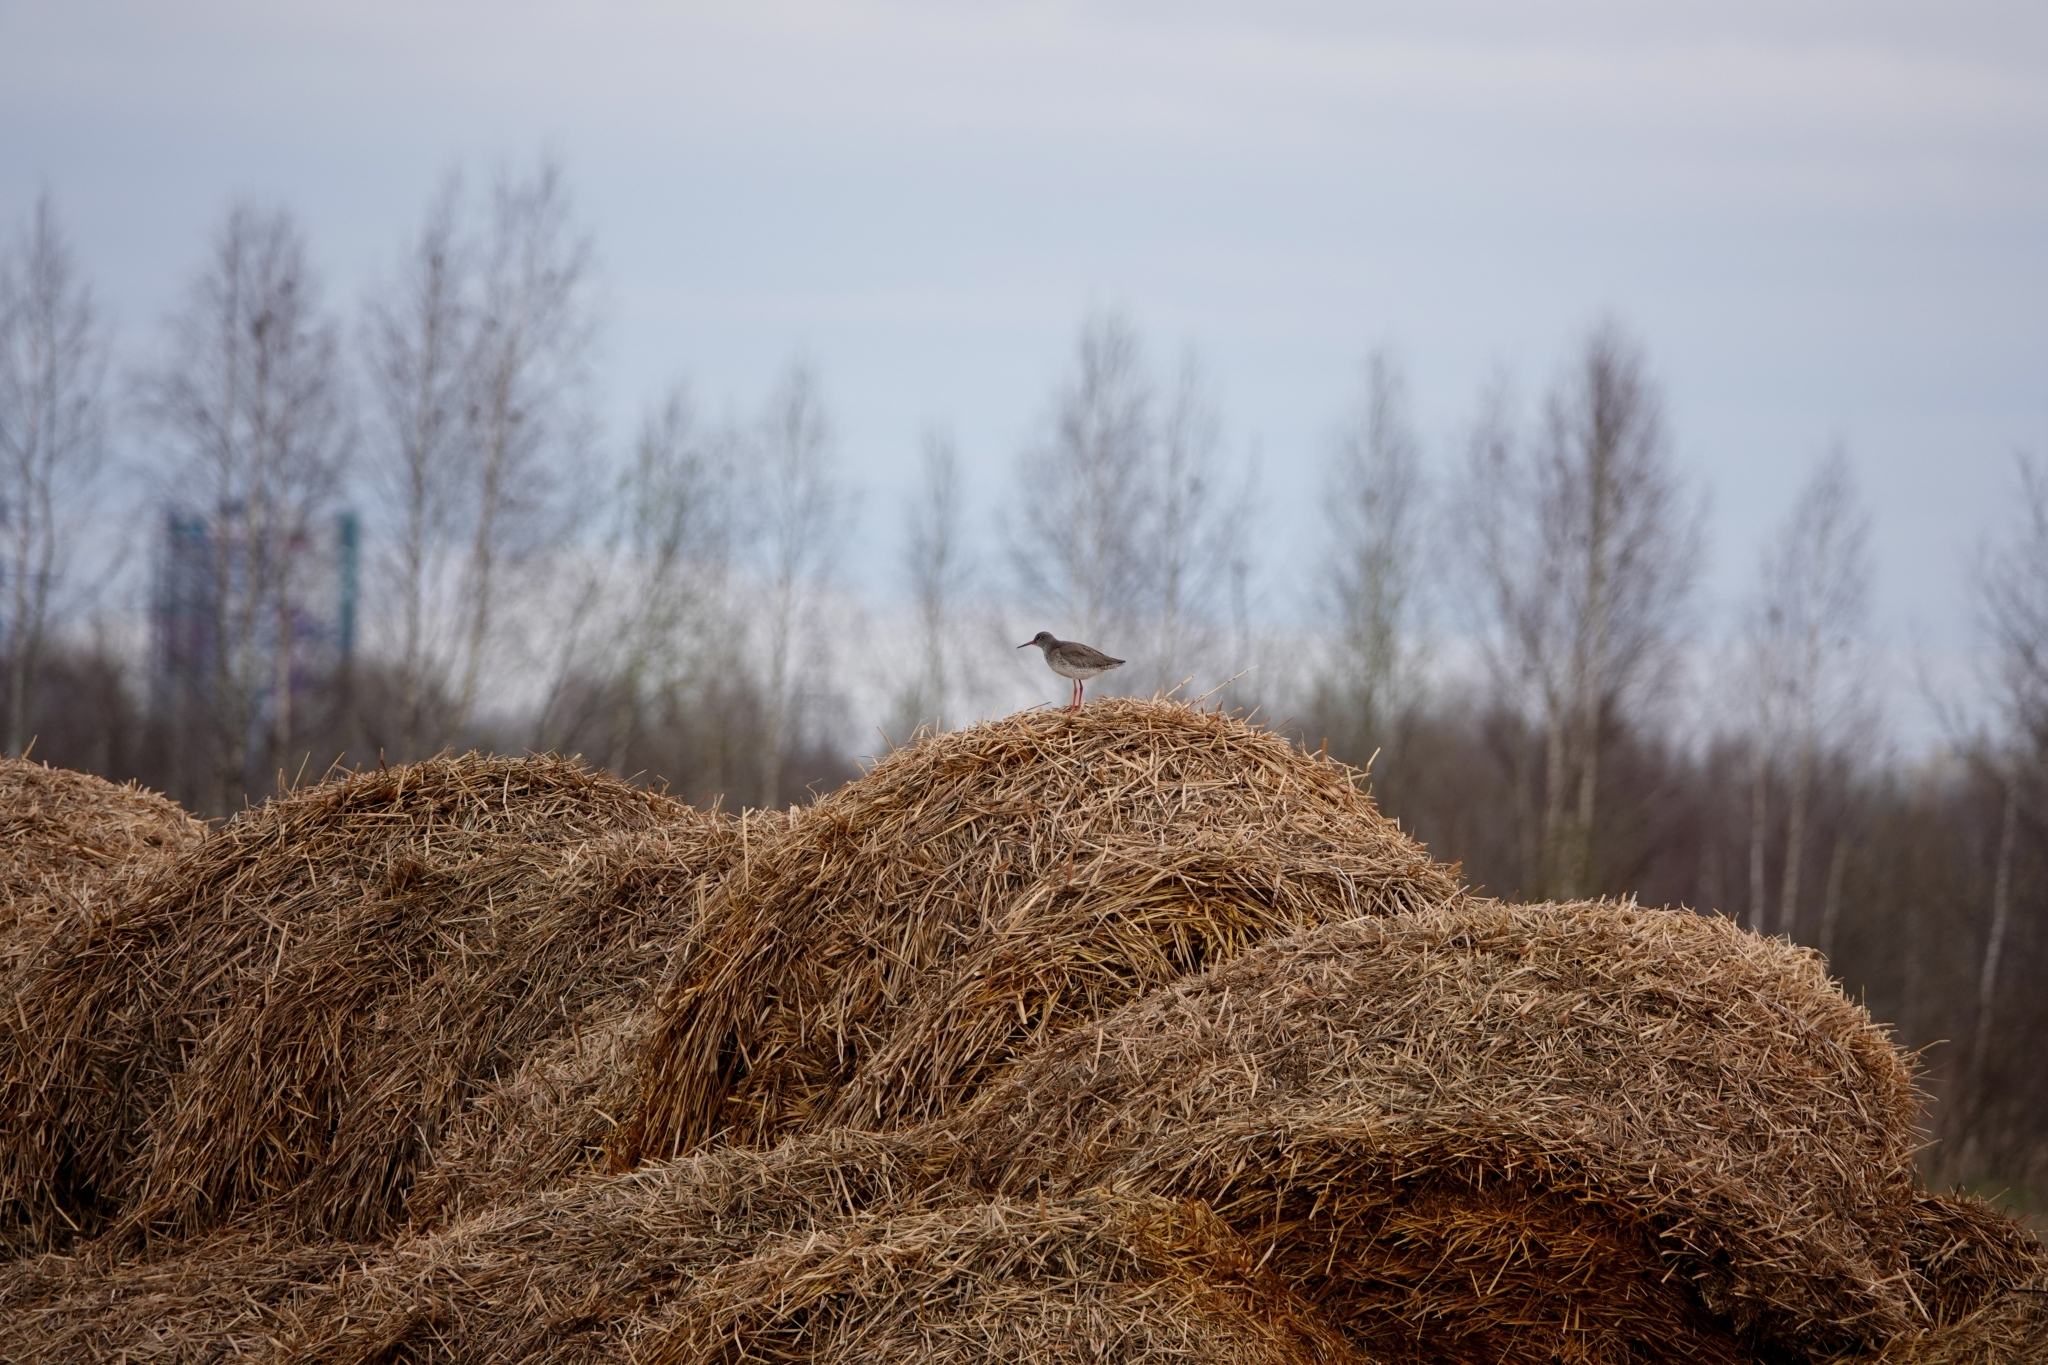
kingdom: Animalia
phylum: Chordata
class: Aves
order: Charadriiformes
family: Scolopacidae
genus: Tringa
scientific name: Tringa totanus
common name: Common redshank
